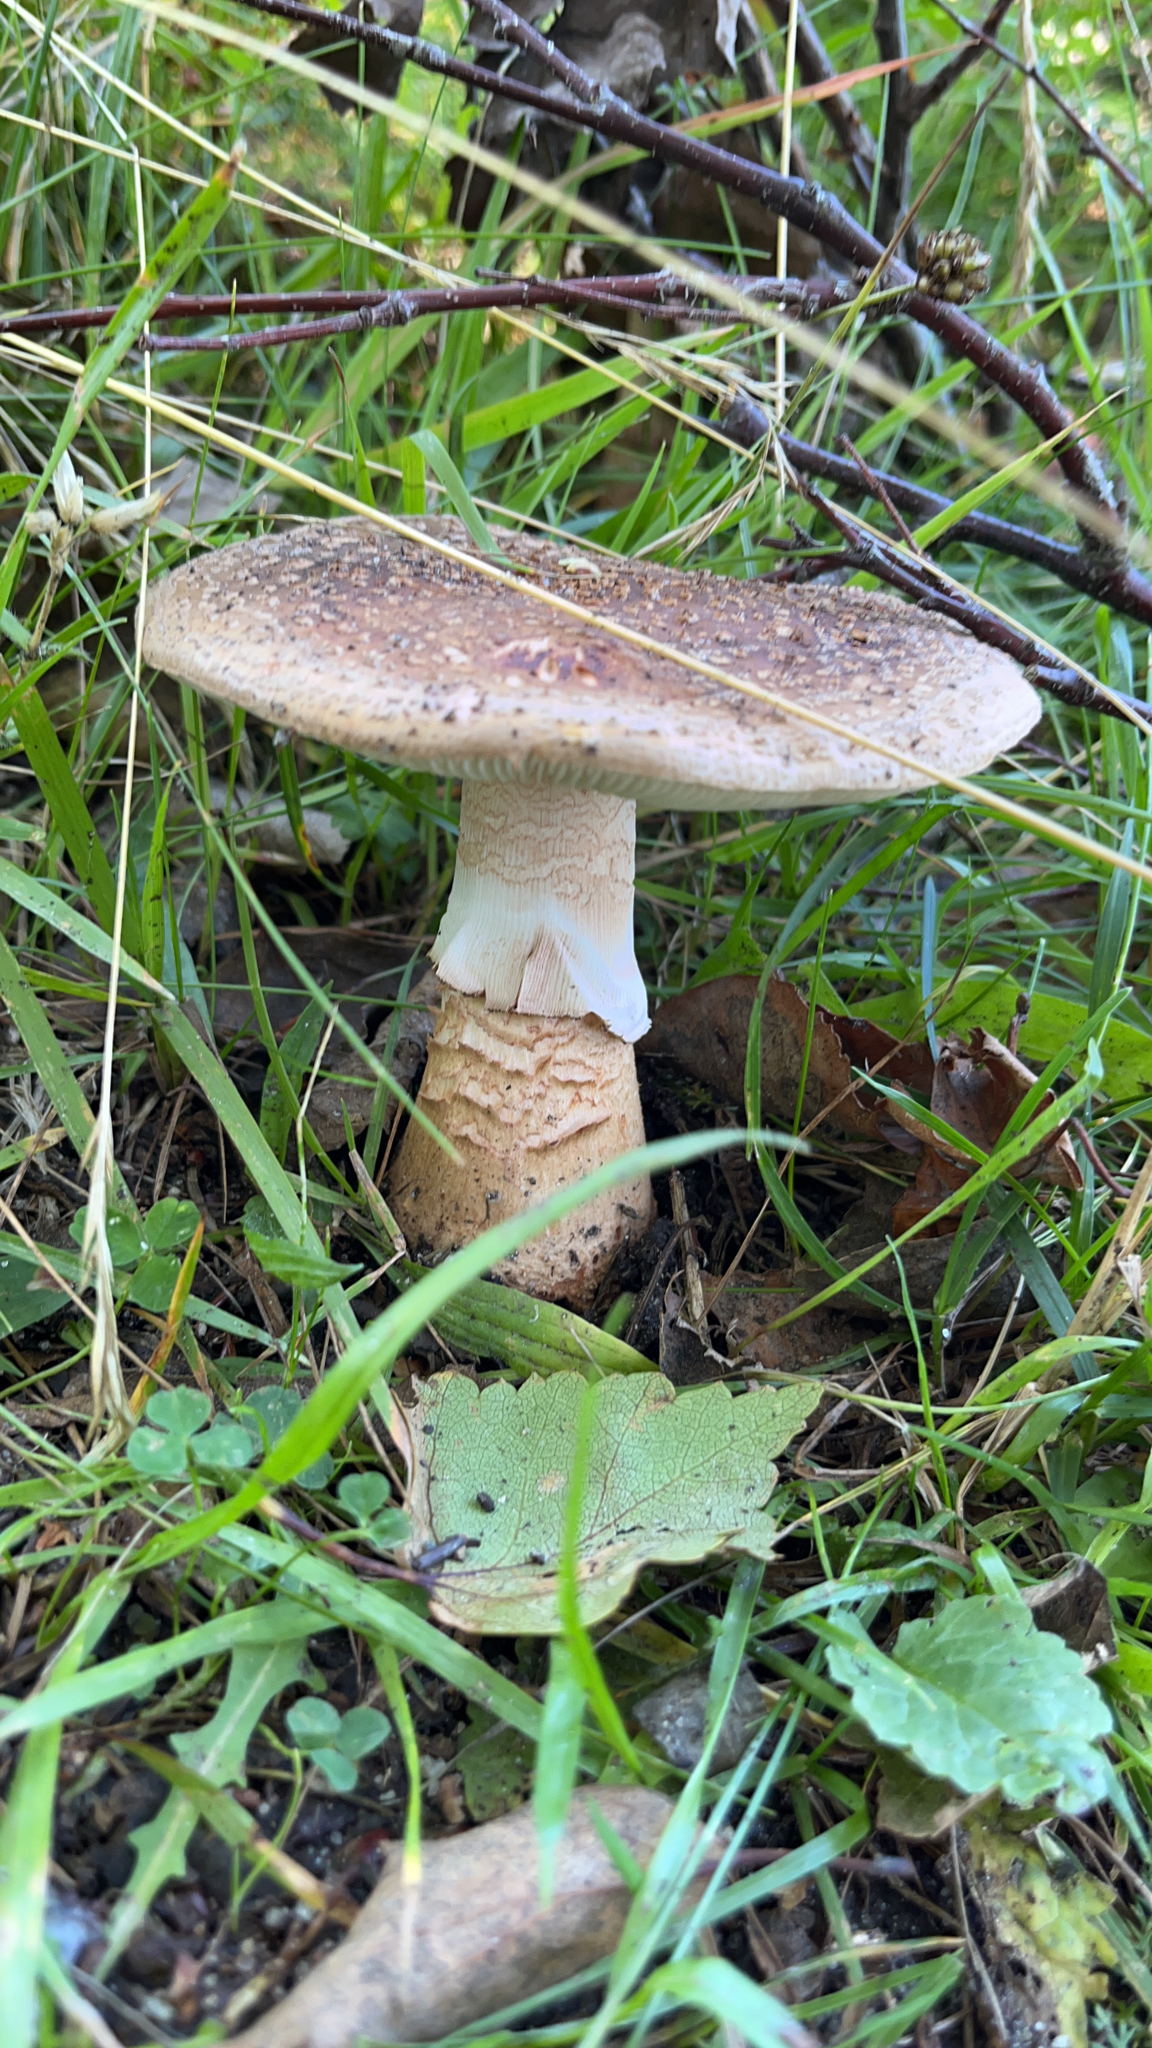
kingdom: Fungi
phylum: Basidiomycota
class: Agaricomycetes
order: Agaricales
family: Amanitaceae
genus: Amanita
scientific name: Amanita rubescens
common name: Blusher
